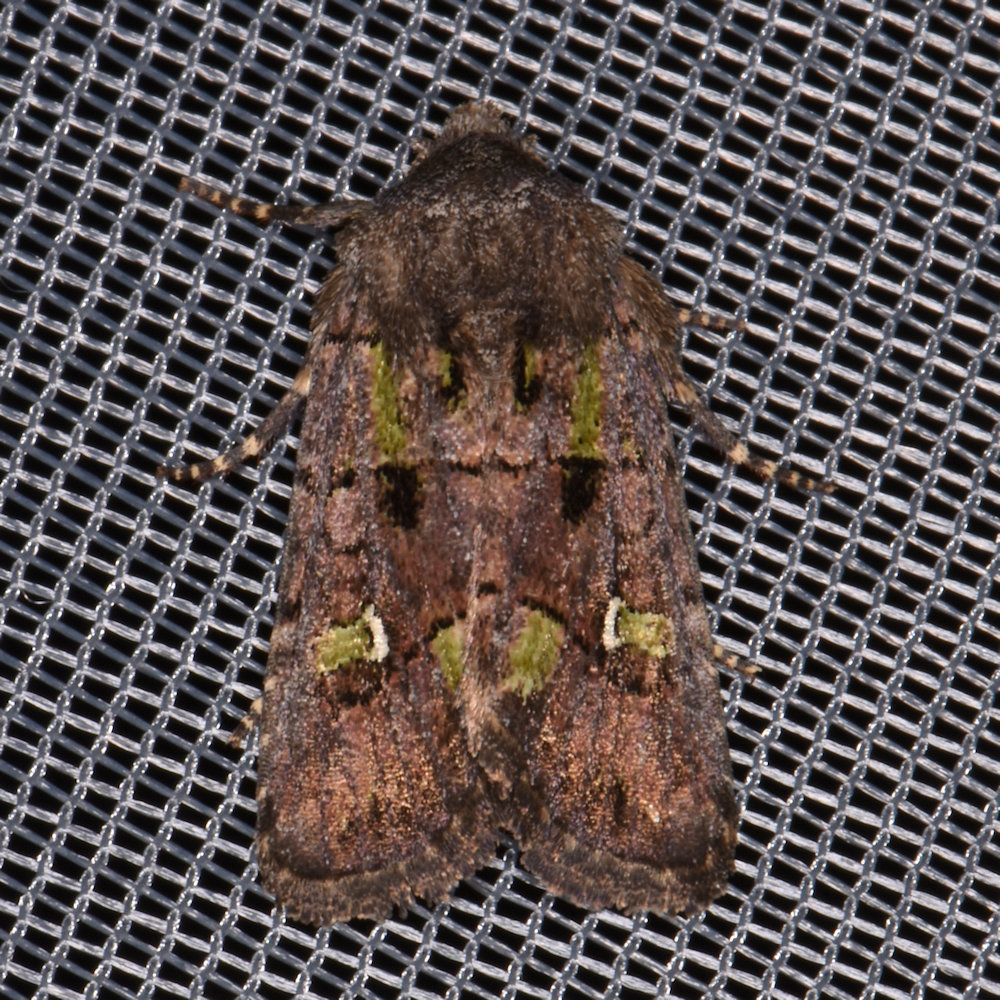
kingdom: Animalia
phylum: Arthropoda
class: Insecta
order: Lepidoptera
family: Noctuidae
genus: Lacinipolia
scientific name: Lacinipolia renigera
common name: Kidney-spotted minor
